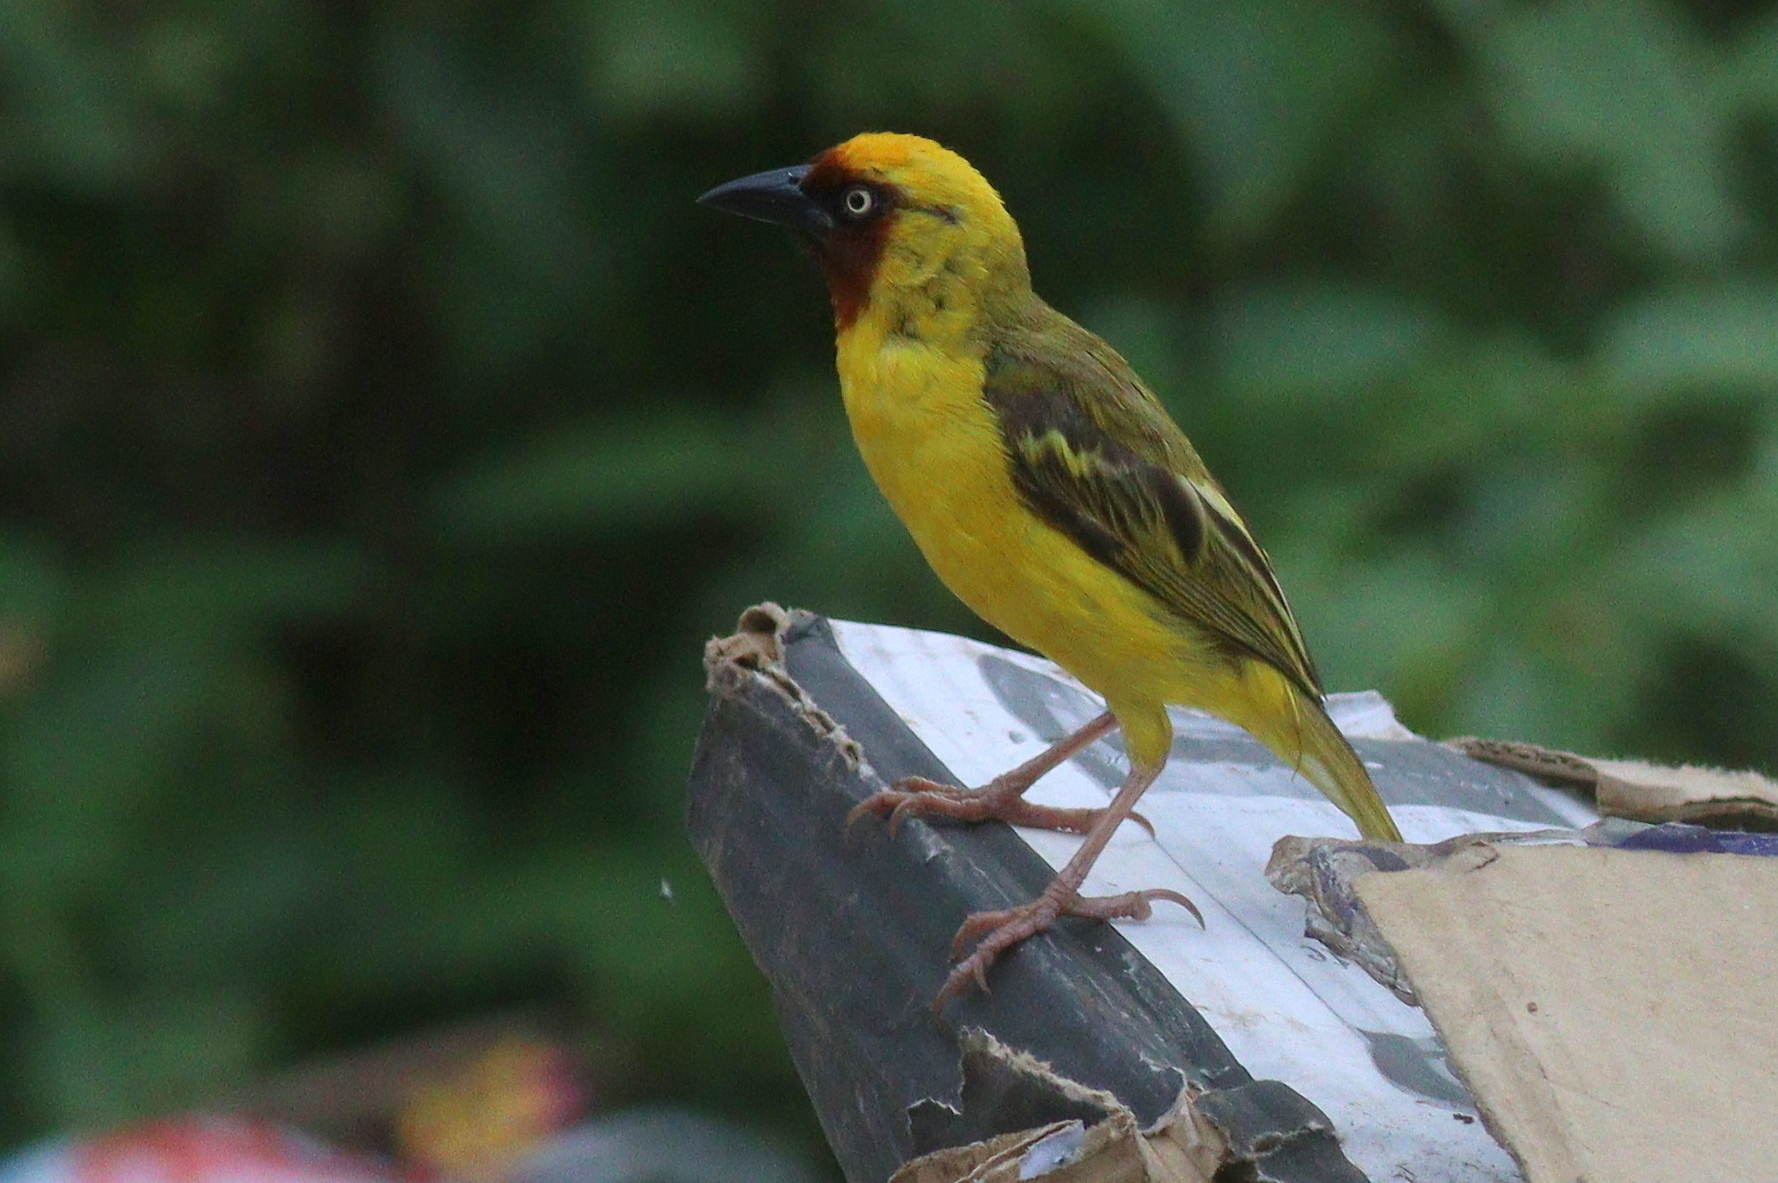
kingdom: Animalia
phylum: Chordata
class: Aves
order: Passeriformes
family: Ploceidae
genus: Ploceus
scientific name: Ploceus castanops
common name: Northern brown-throated weaver
